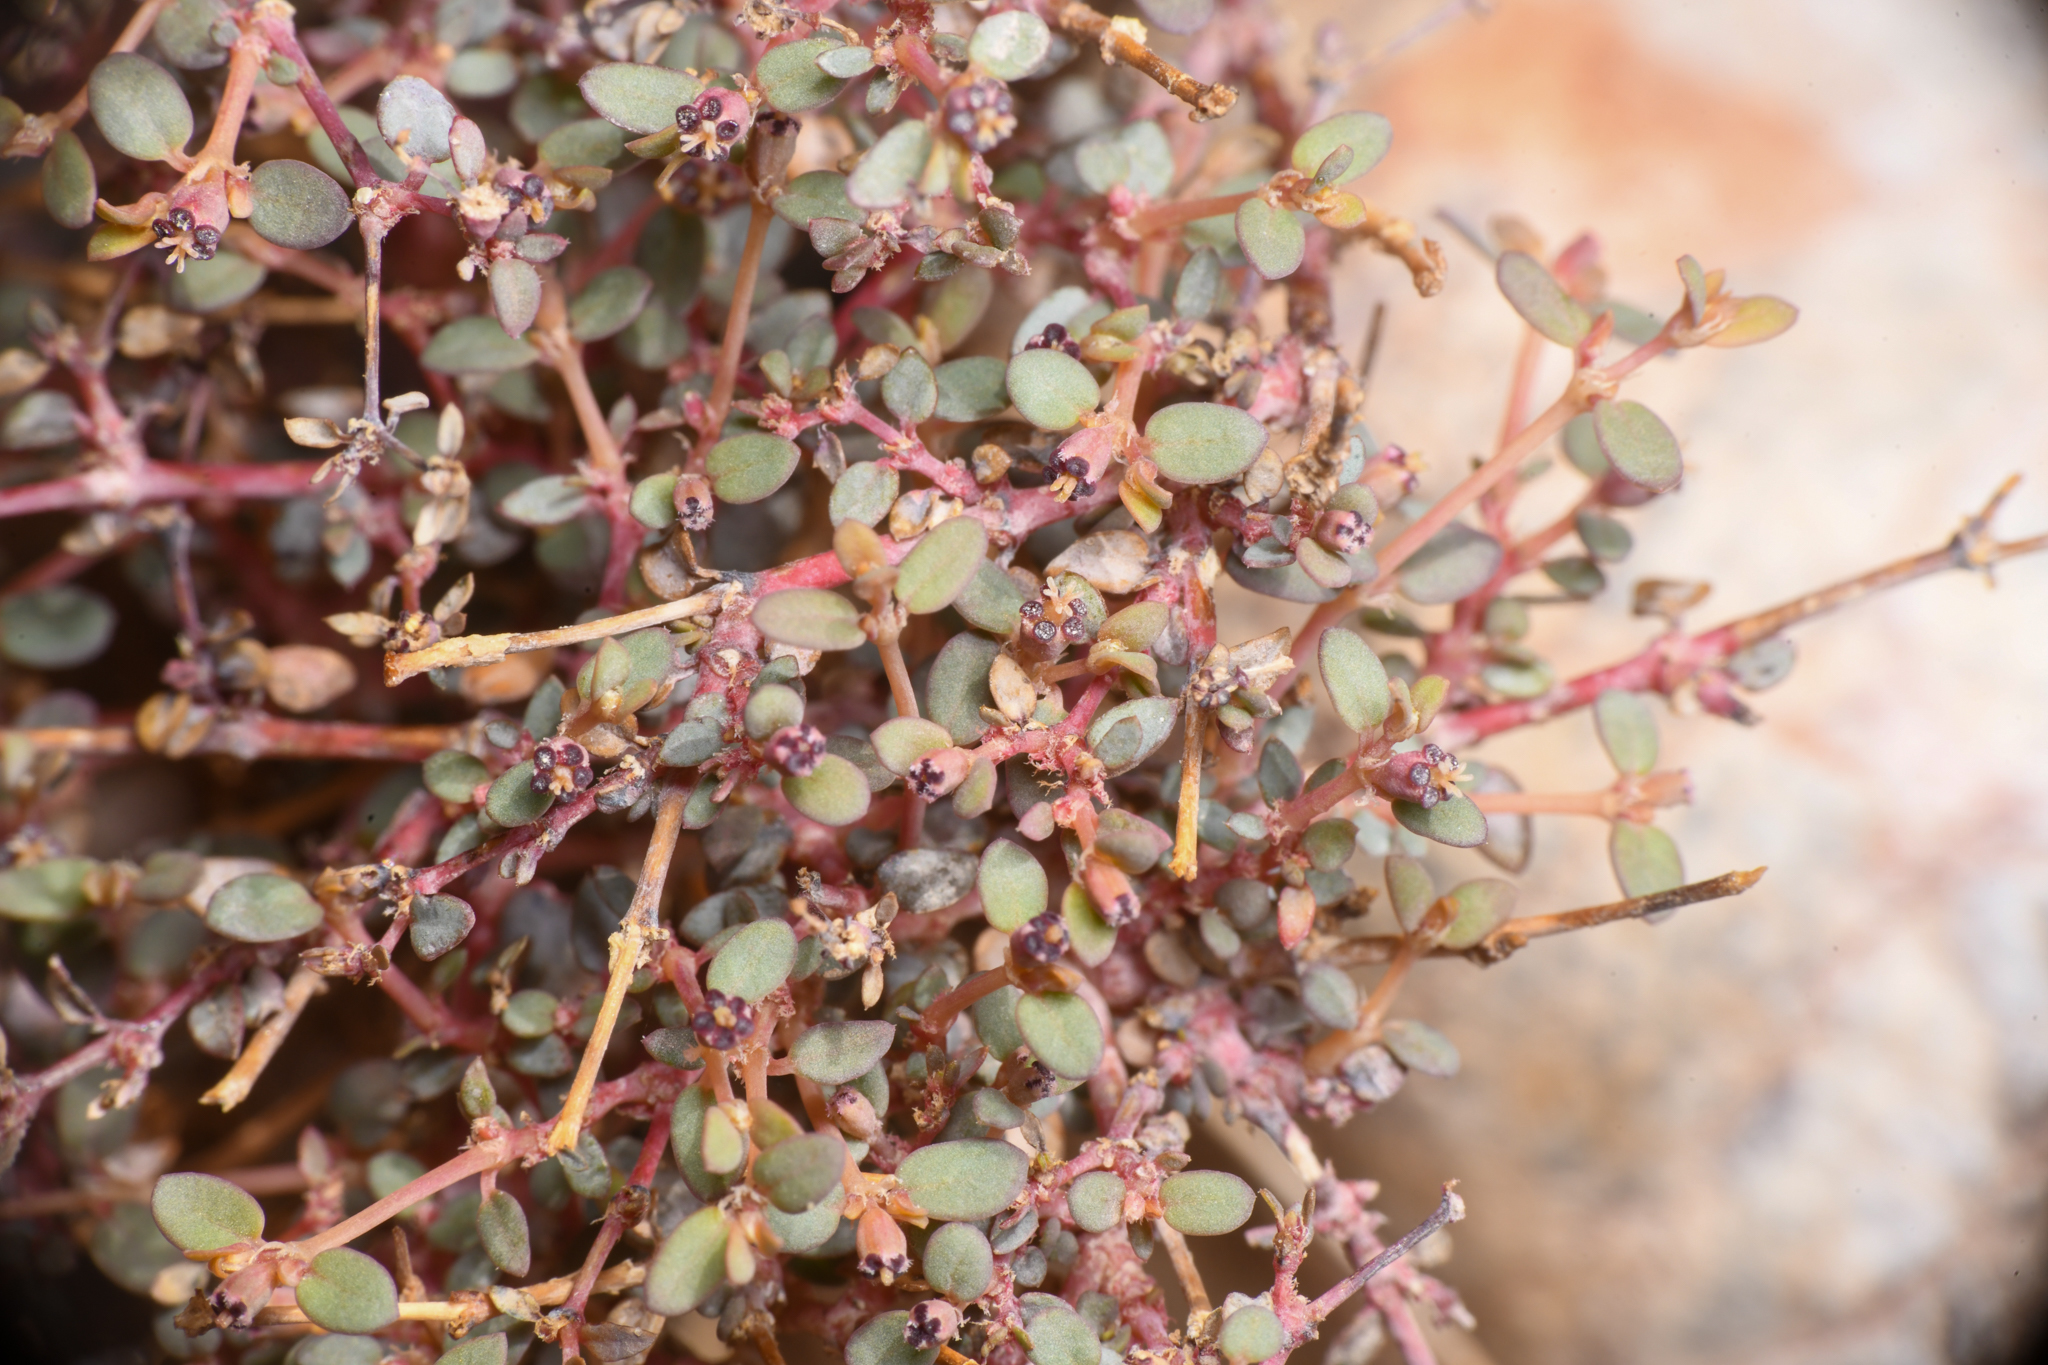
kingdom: Plantae
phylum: Tracheophyta
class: Magnoliopsida
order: Malpighiales
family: Euphorbiaceae
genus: Euphorbia
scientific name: Euphorbia parishii
